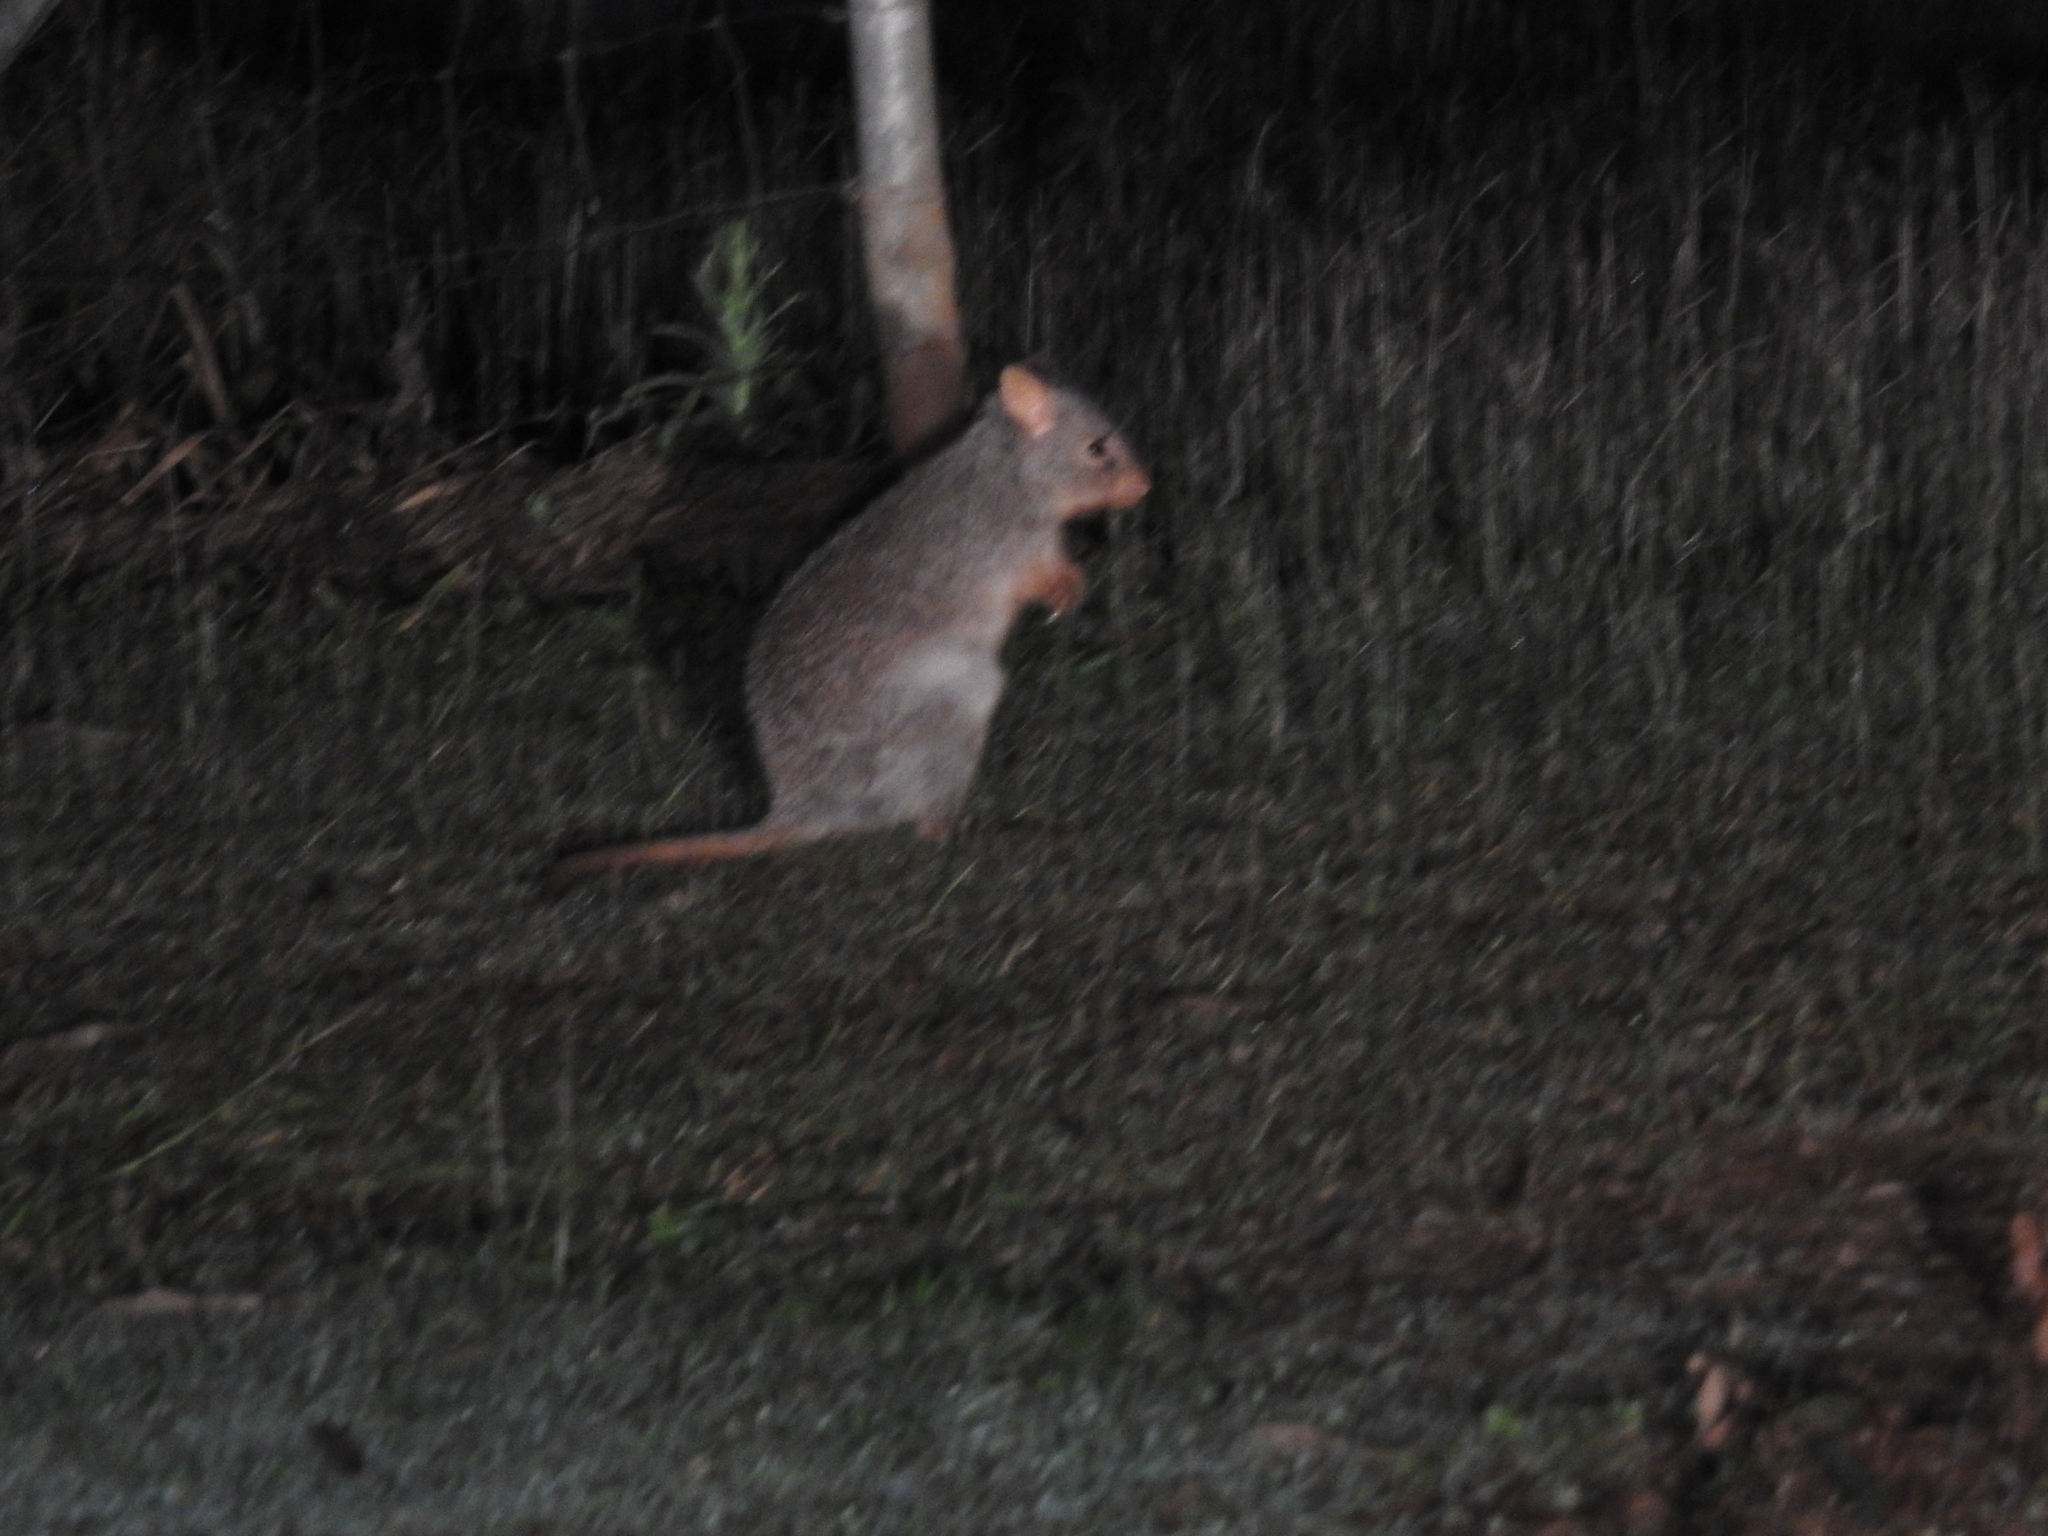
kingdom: Animalia
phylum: Chordata
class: Mammalia
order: Diprotodontia
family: Potoroidae
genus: Bettongia
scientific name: Bettongia tropica
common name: Northern bettong
